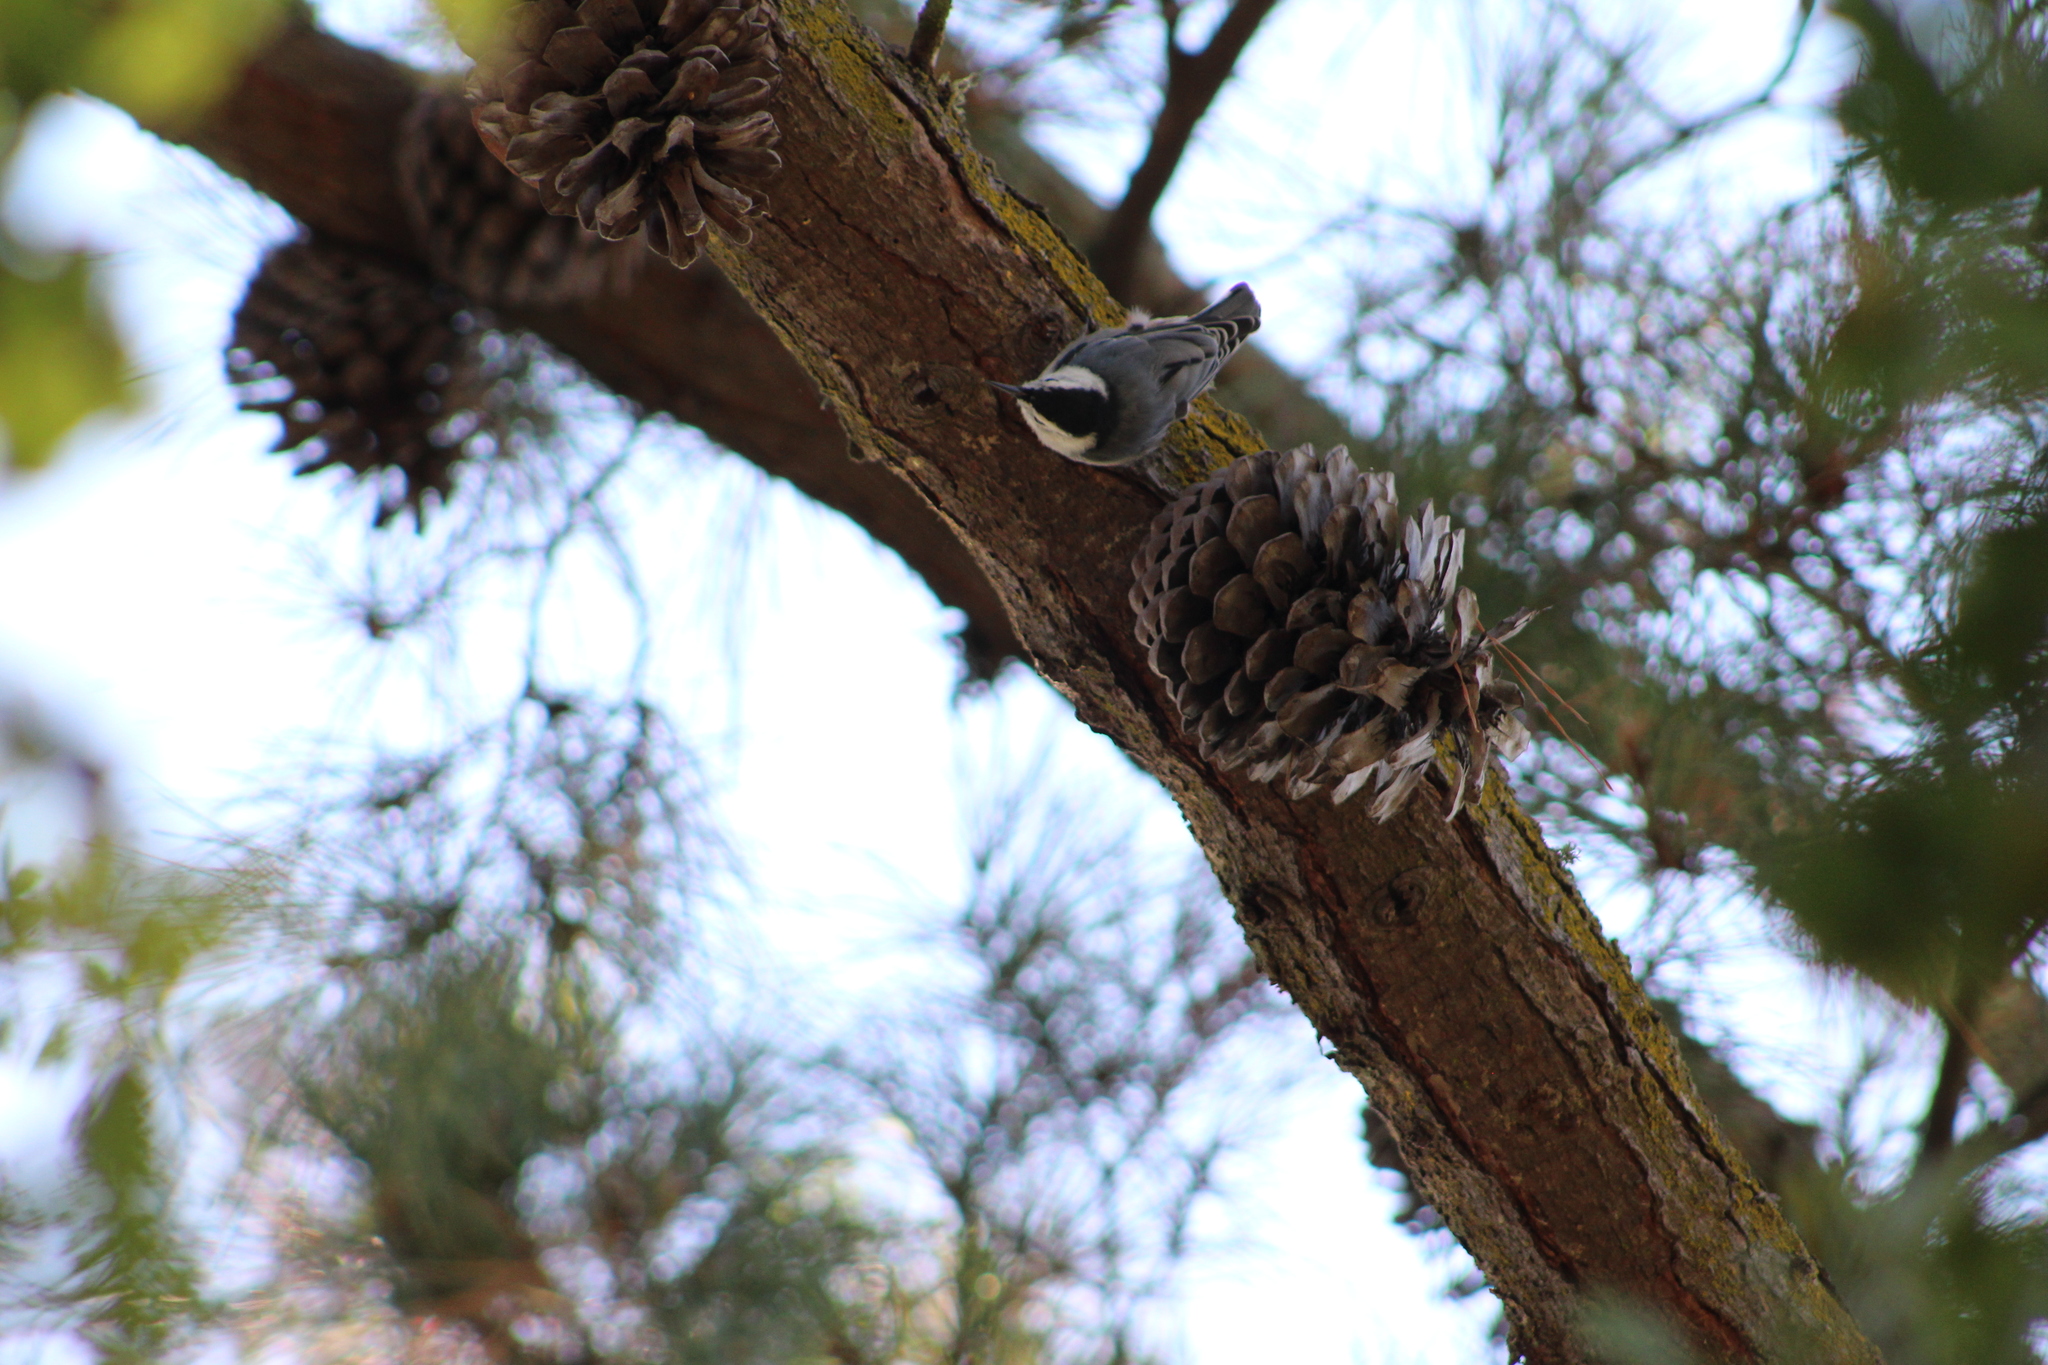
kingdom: Animalia
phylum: Chordata
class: Aves
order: Passeriformes
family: Sittidae
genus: Sitta
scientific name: Sitta carolinensis
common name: White-breasted nuthatch
